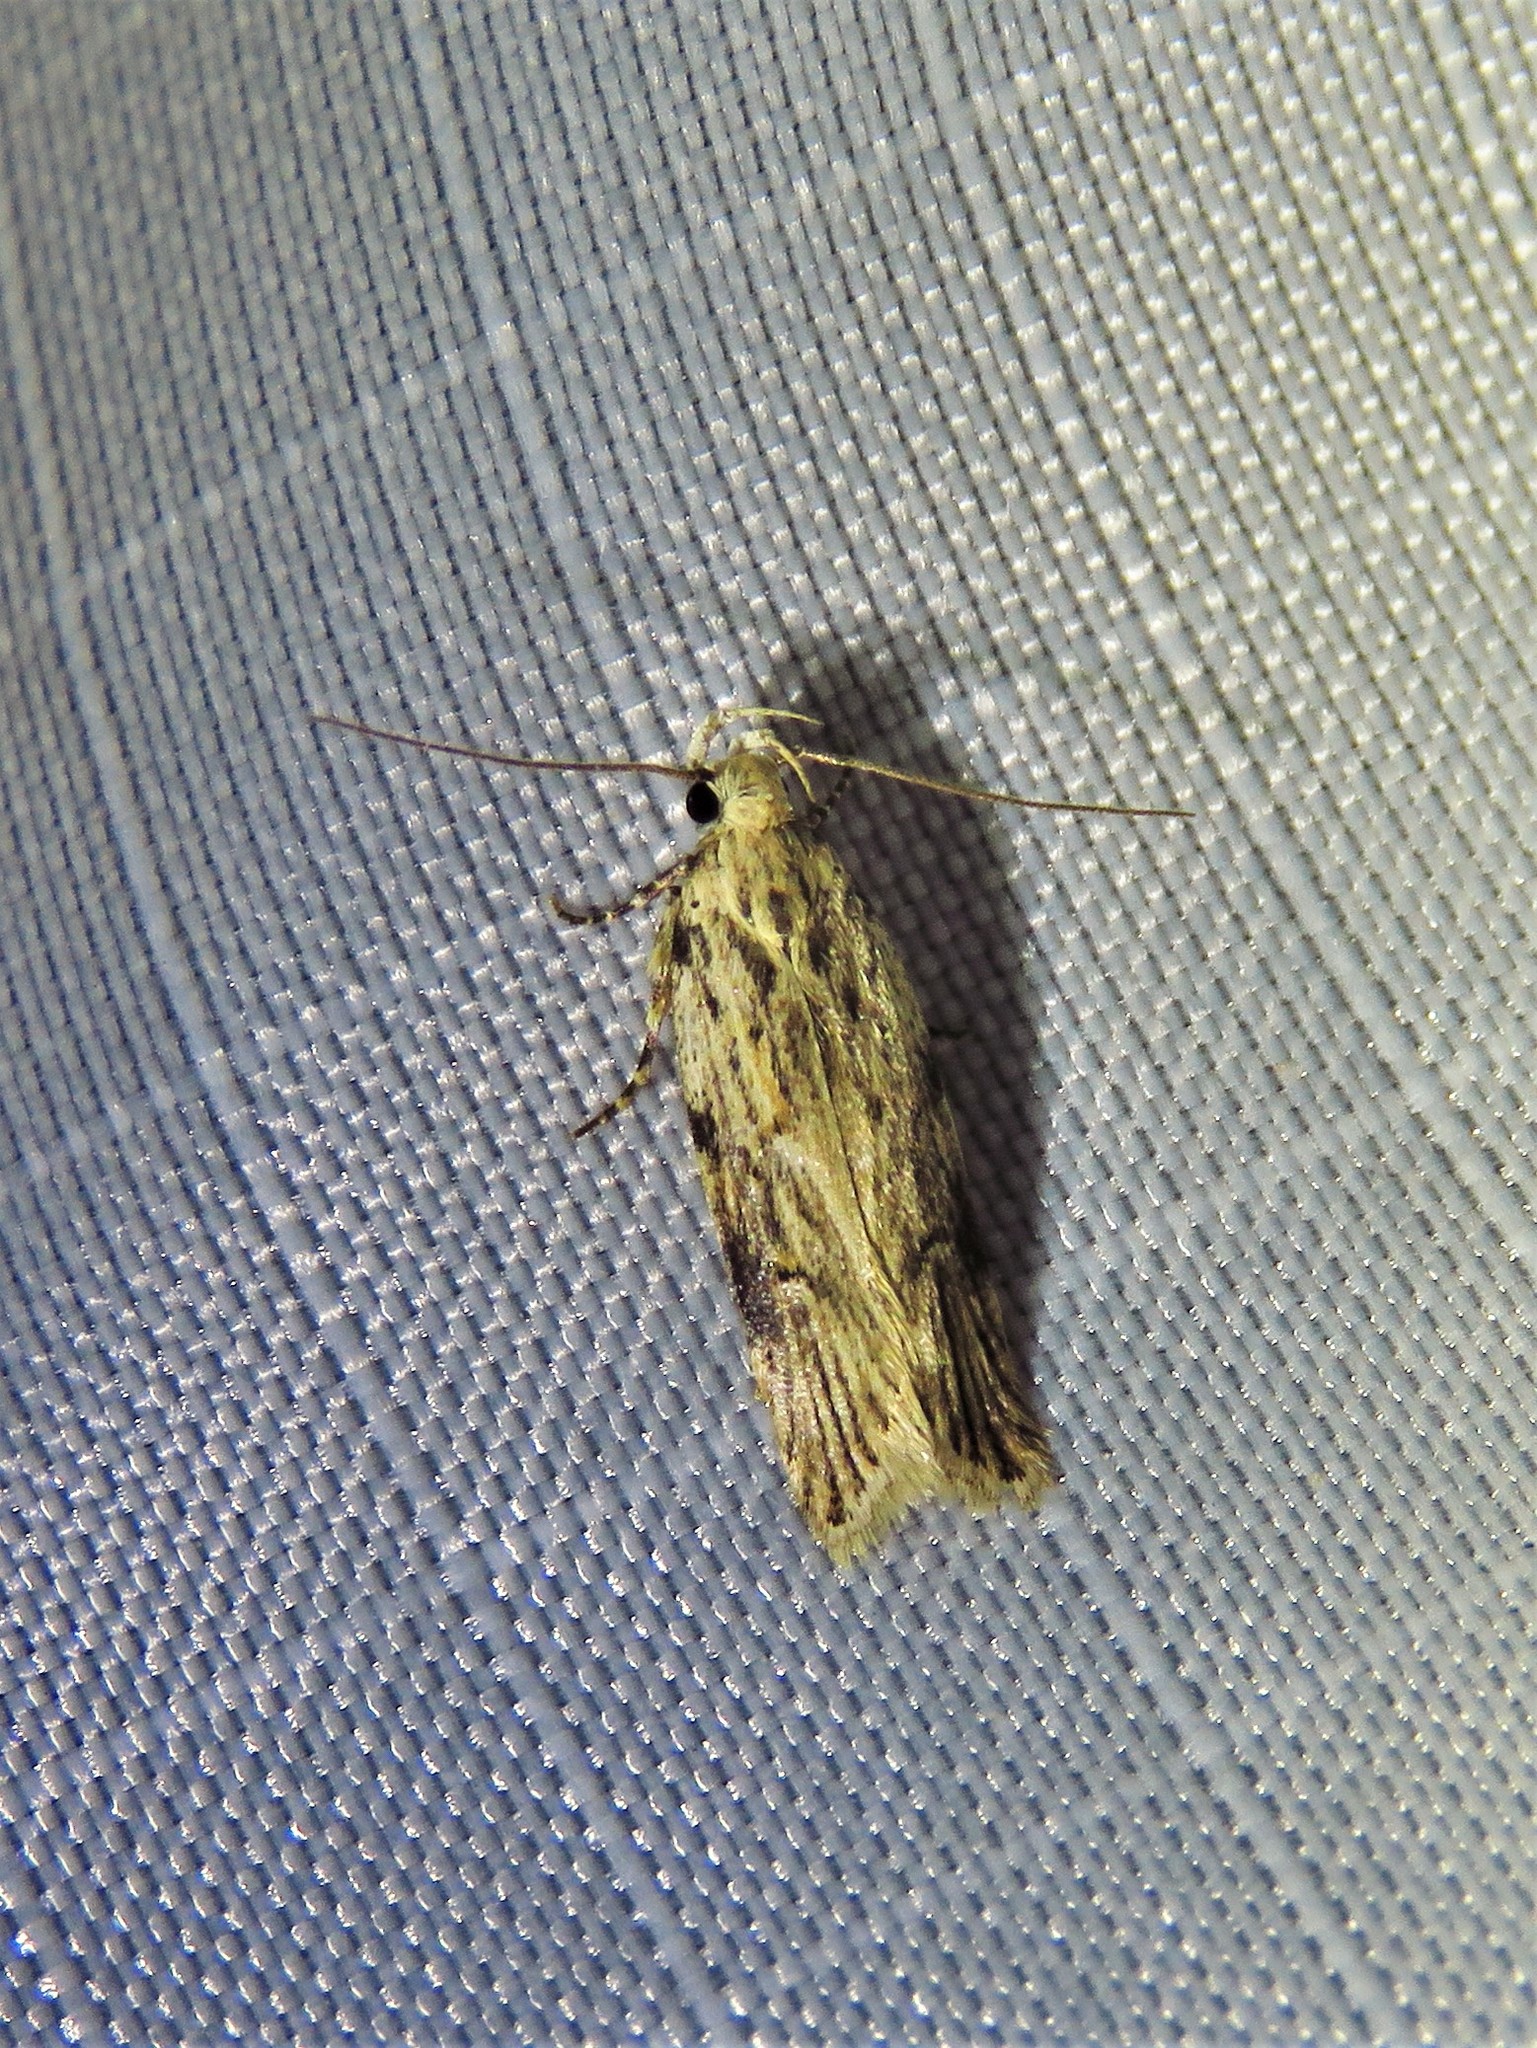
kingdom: Animalia
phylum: Arthropoda
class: Insecta
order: Lepidoptera
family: Gelechiidae
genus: Friseria
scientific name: Friseria cockerelli
